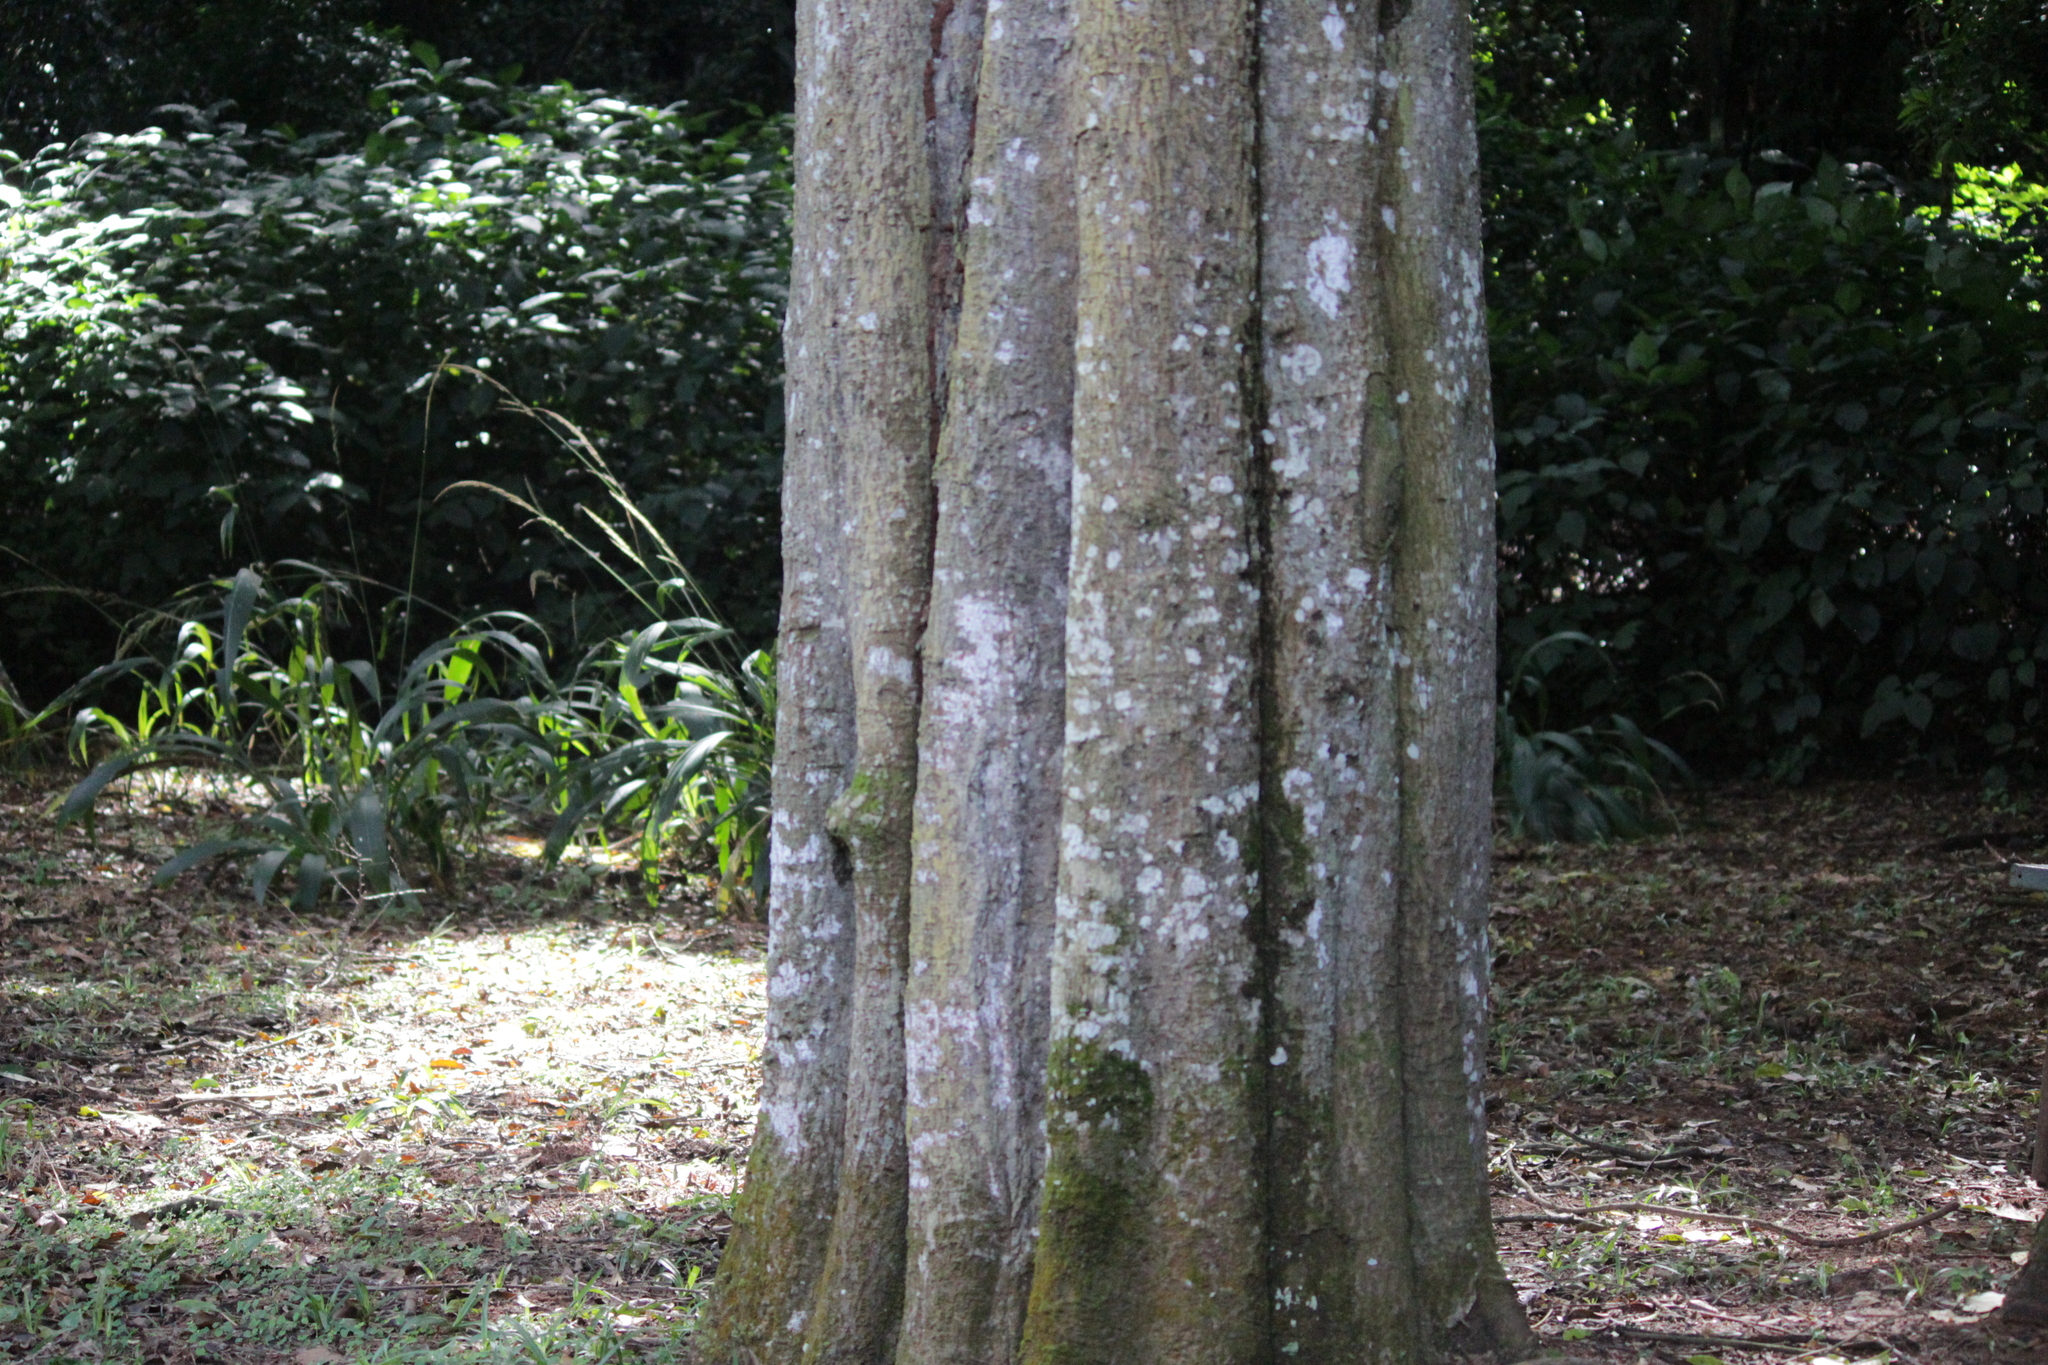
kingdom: Plantae
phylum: Tracheophyta
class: Magnoliopsida
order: Ericales
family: Sapotaceae
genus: Donella
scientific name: Donella viridifolia
